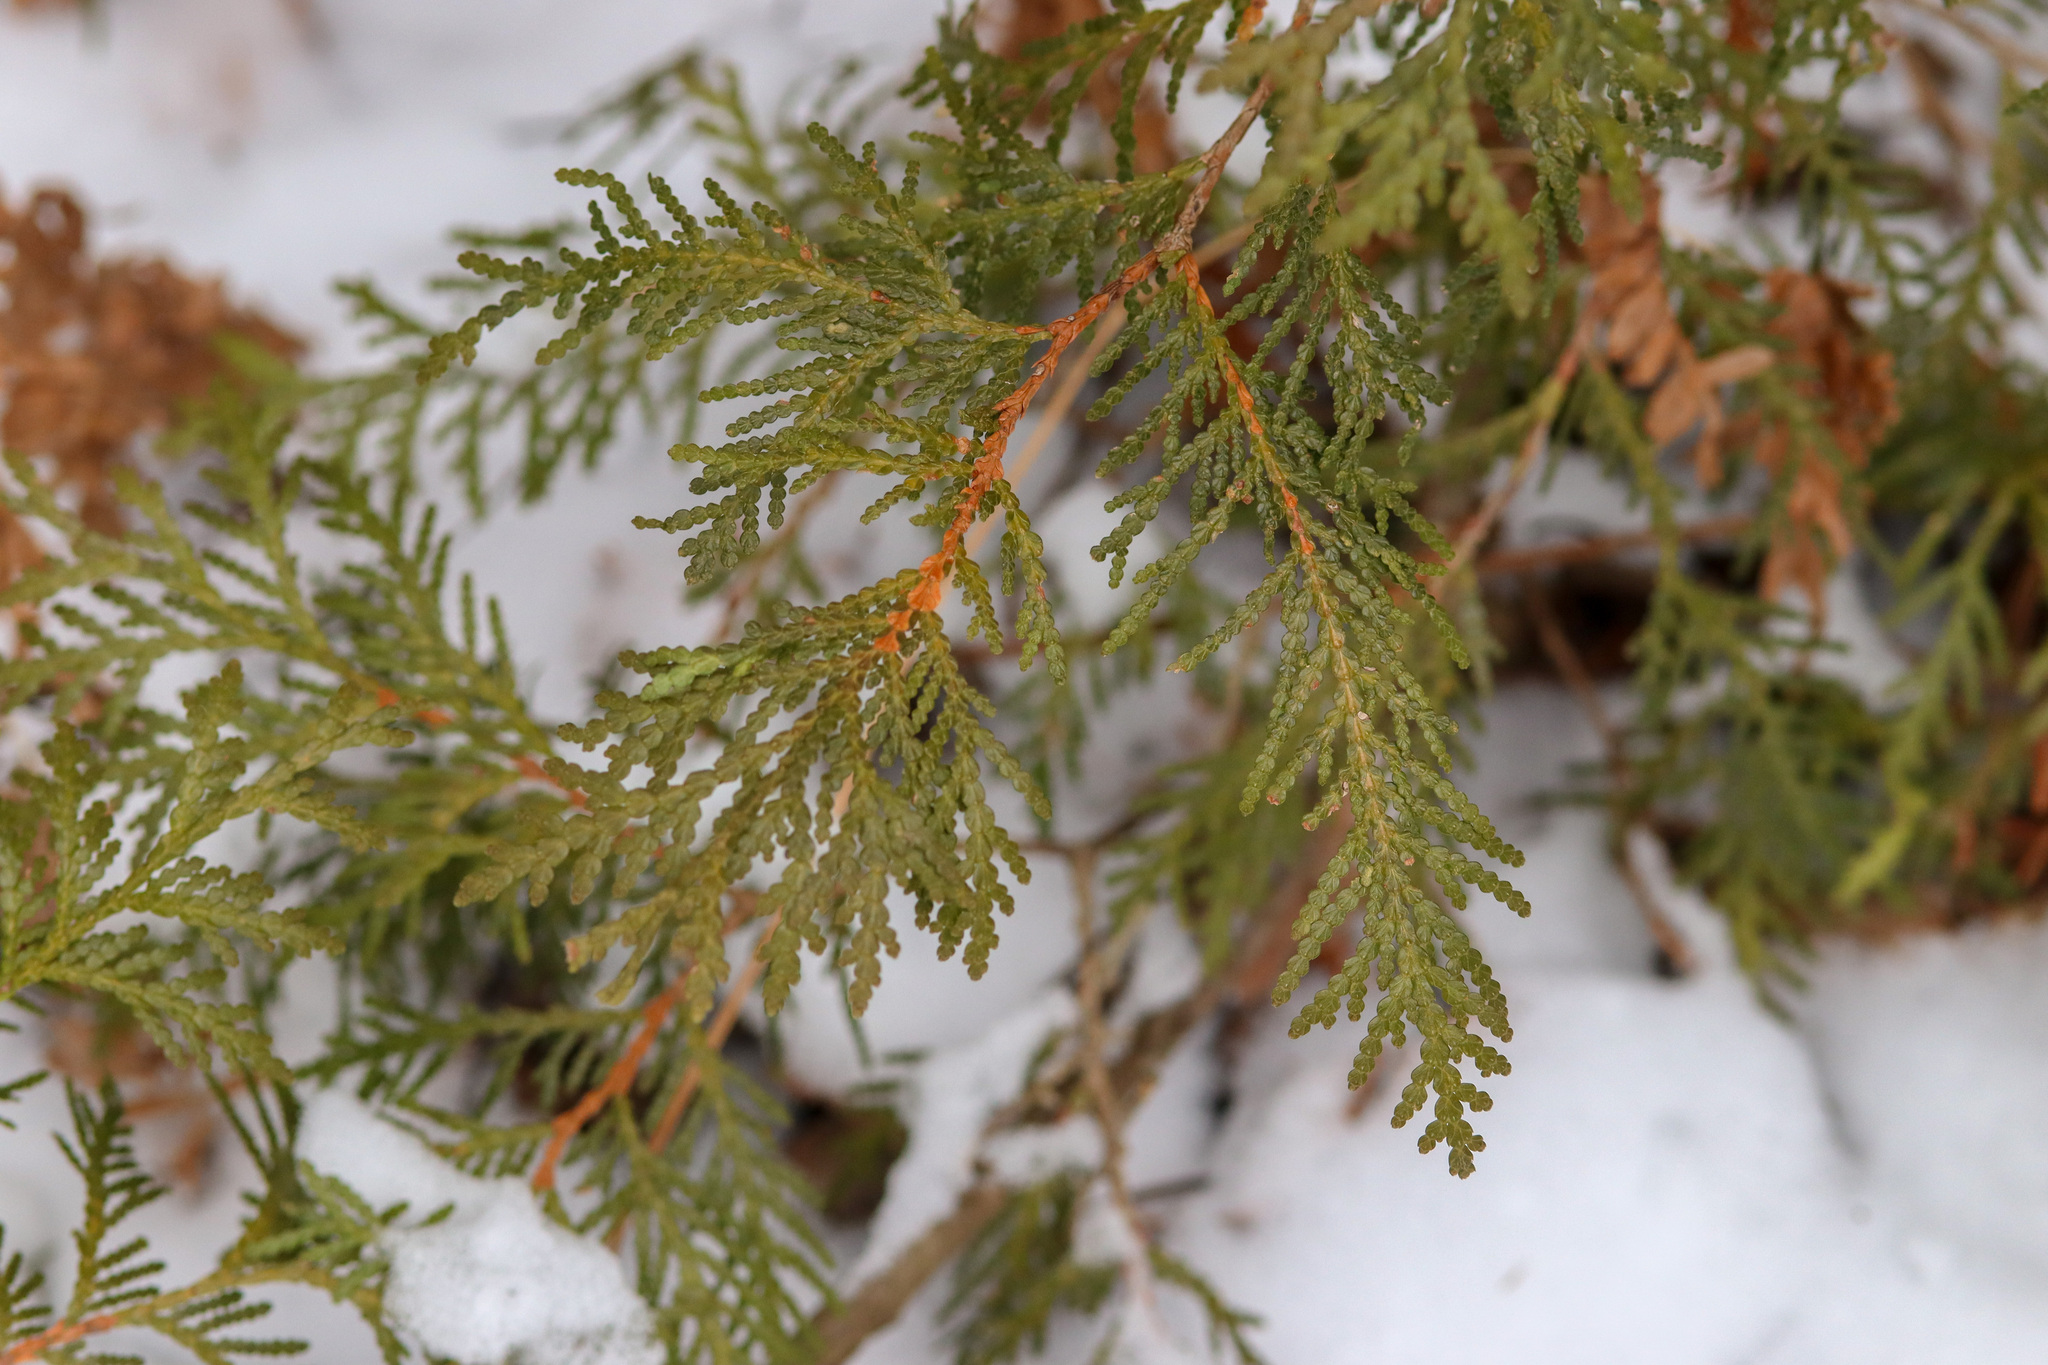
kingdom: Plantae
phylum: Tracheophyta
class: Pinopsida
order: Pinales
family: Cupressaceae
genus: Thuja
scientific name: Thuja occidentalis
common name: Northern white-cedar
